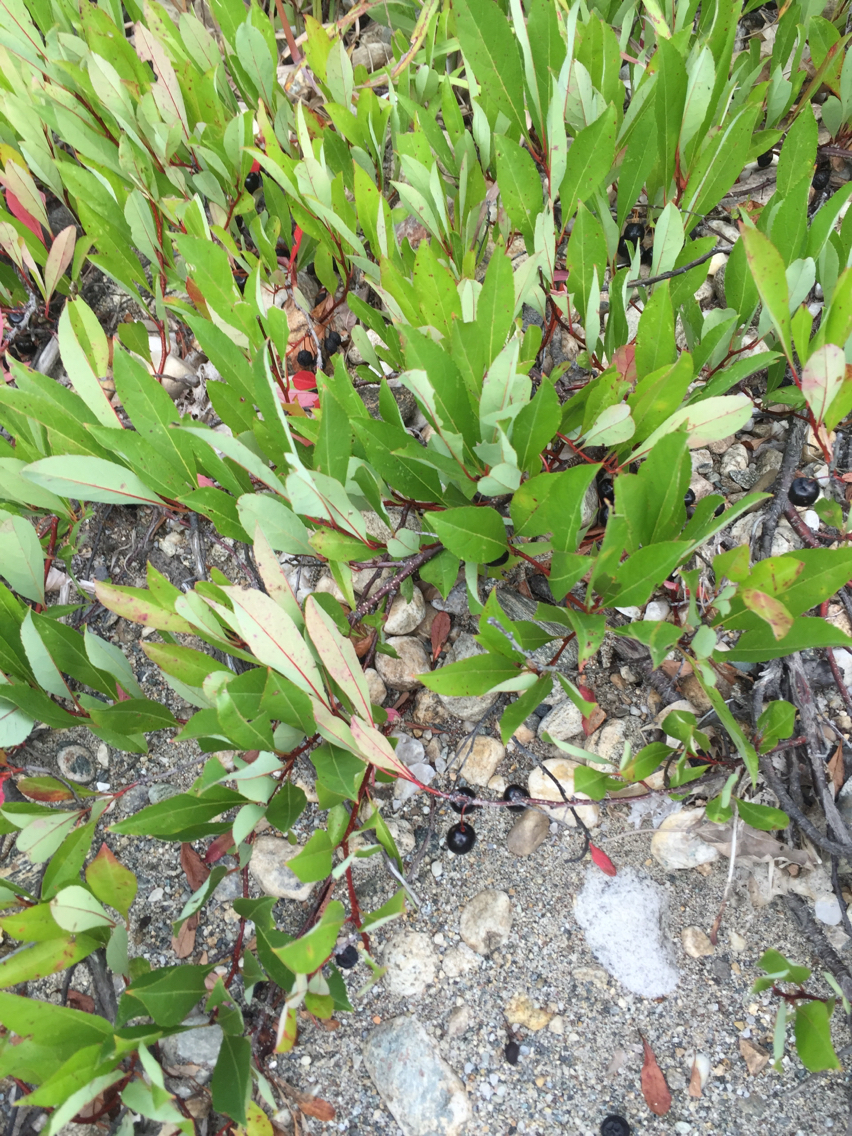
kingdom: Plantae
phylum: Tracheophyta
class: Magnoliopsida
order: Rosales
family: Rosaceae
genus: Prunus
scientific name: Prunus pumila
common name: Dwarf cherry
